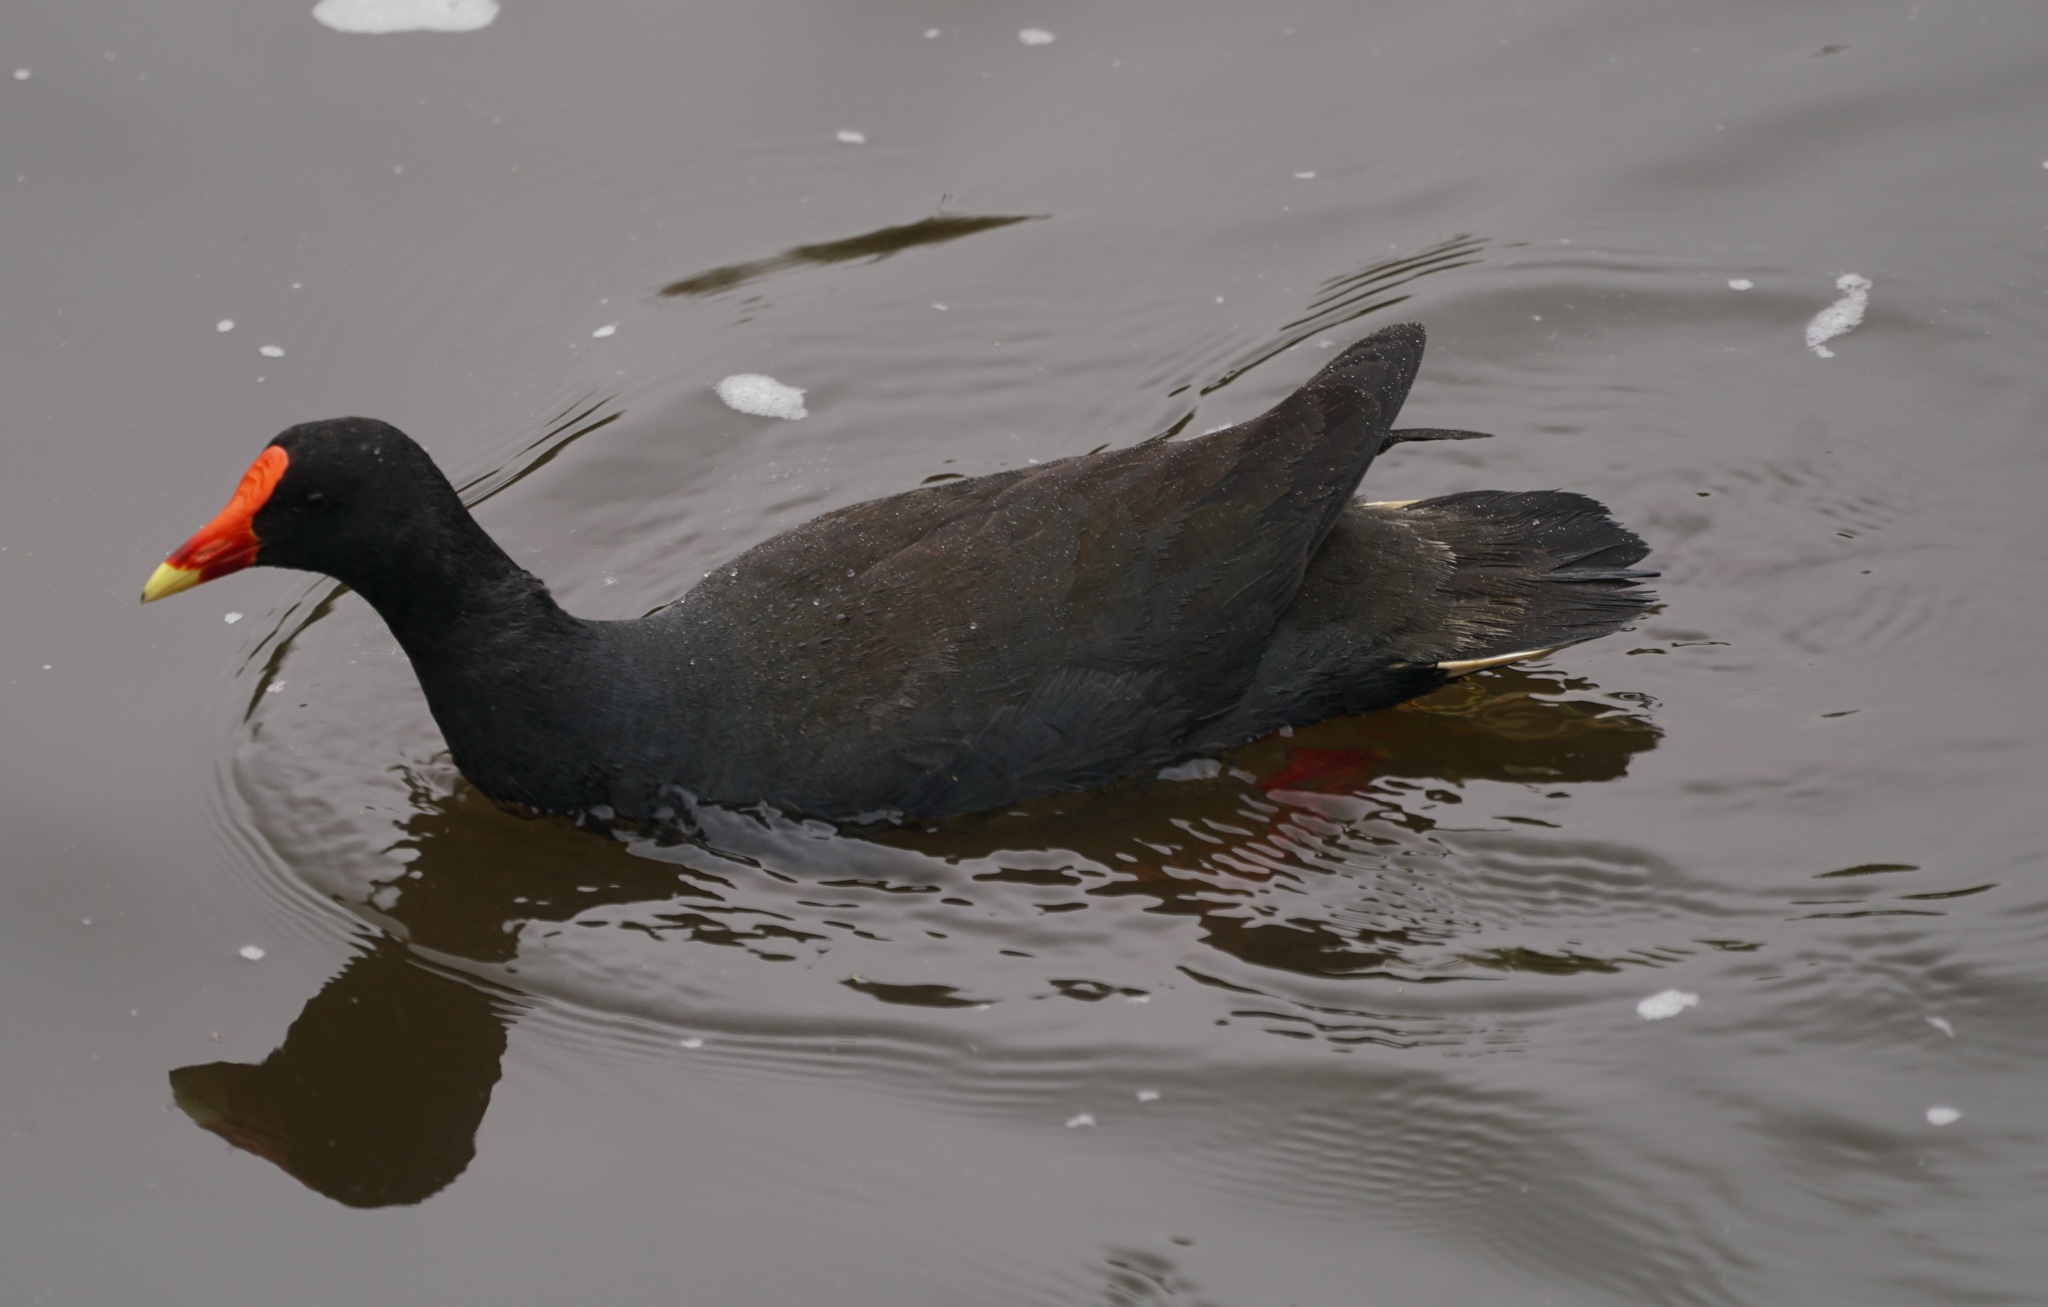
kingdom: Animalia
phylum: Chordata
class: Aves
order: Gruiformes
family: Rallidae
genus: Gallinula
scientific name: Gallinula tenebrosa
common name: Dusky moorhen
